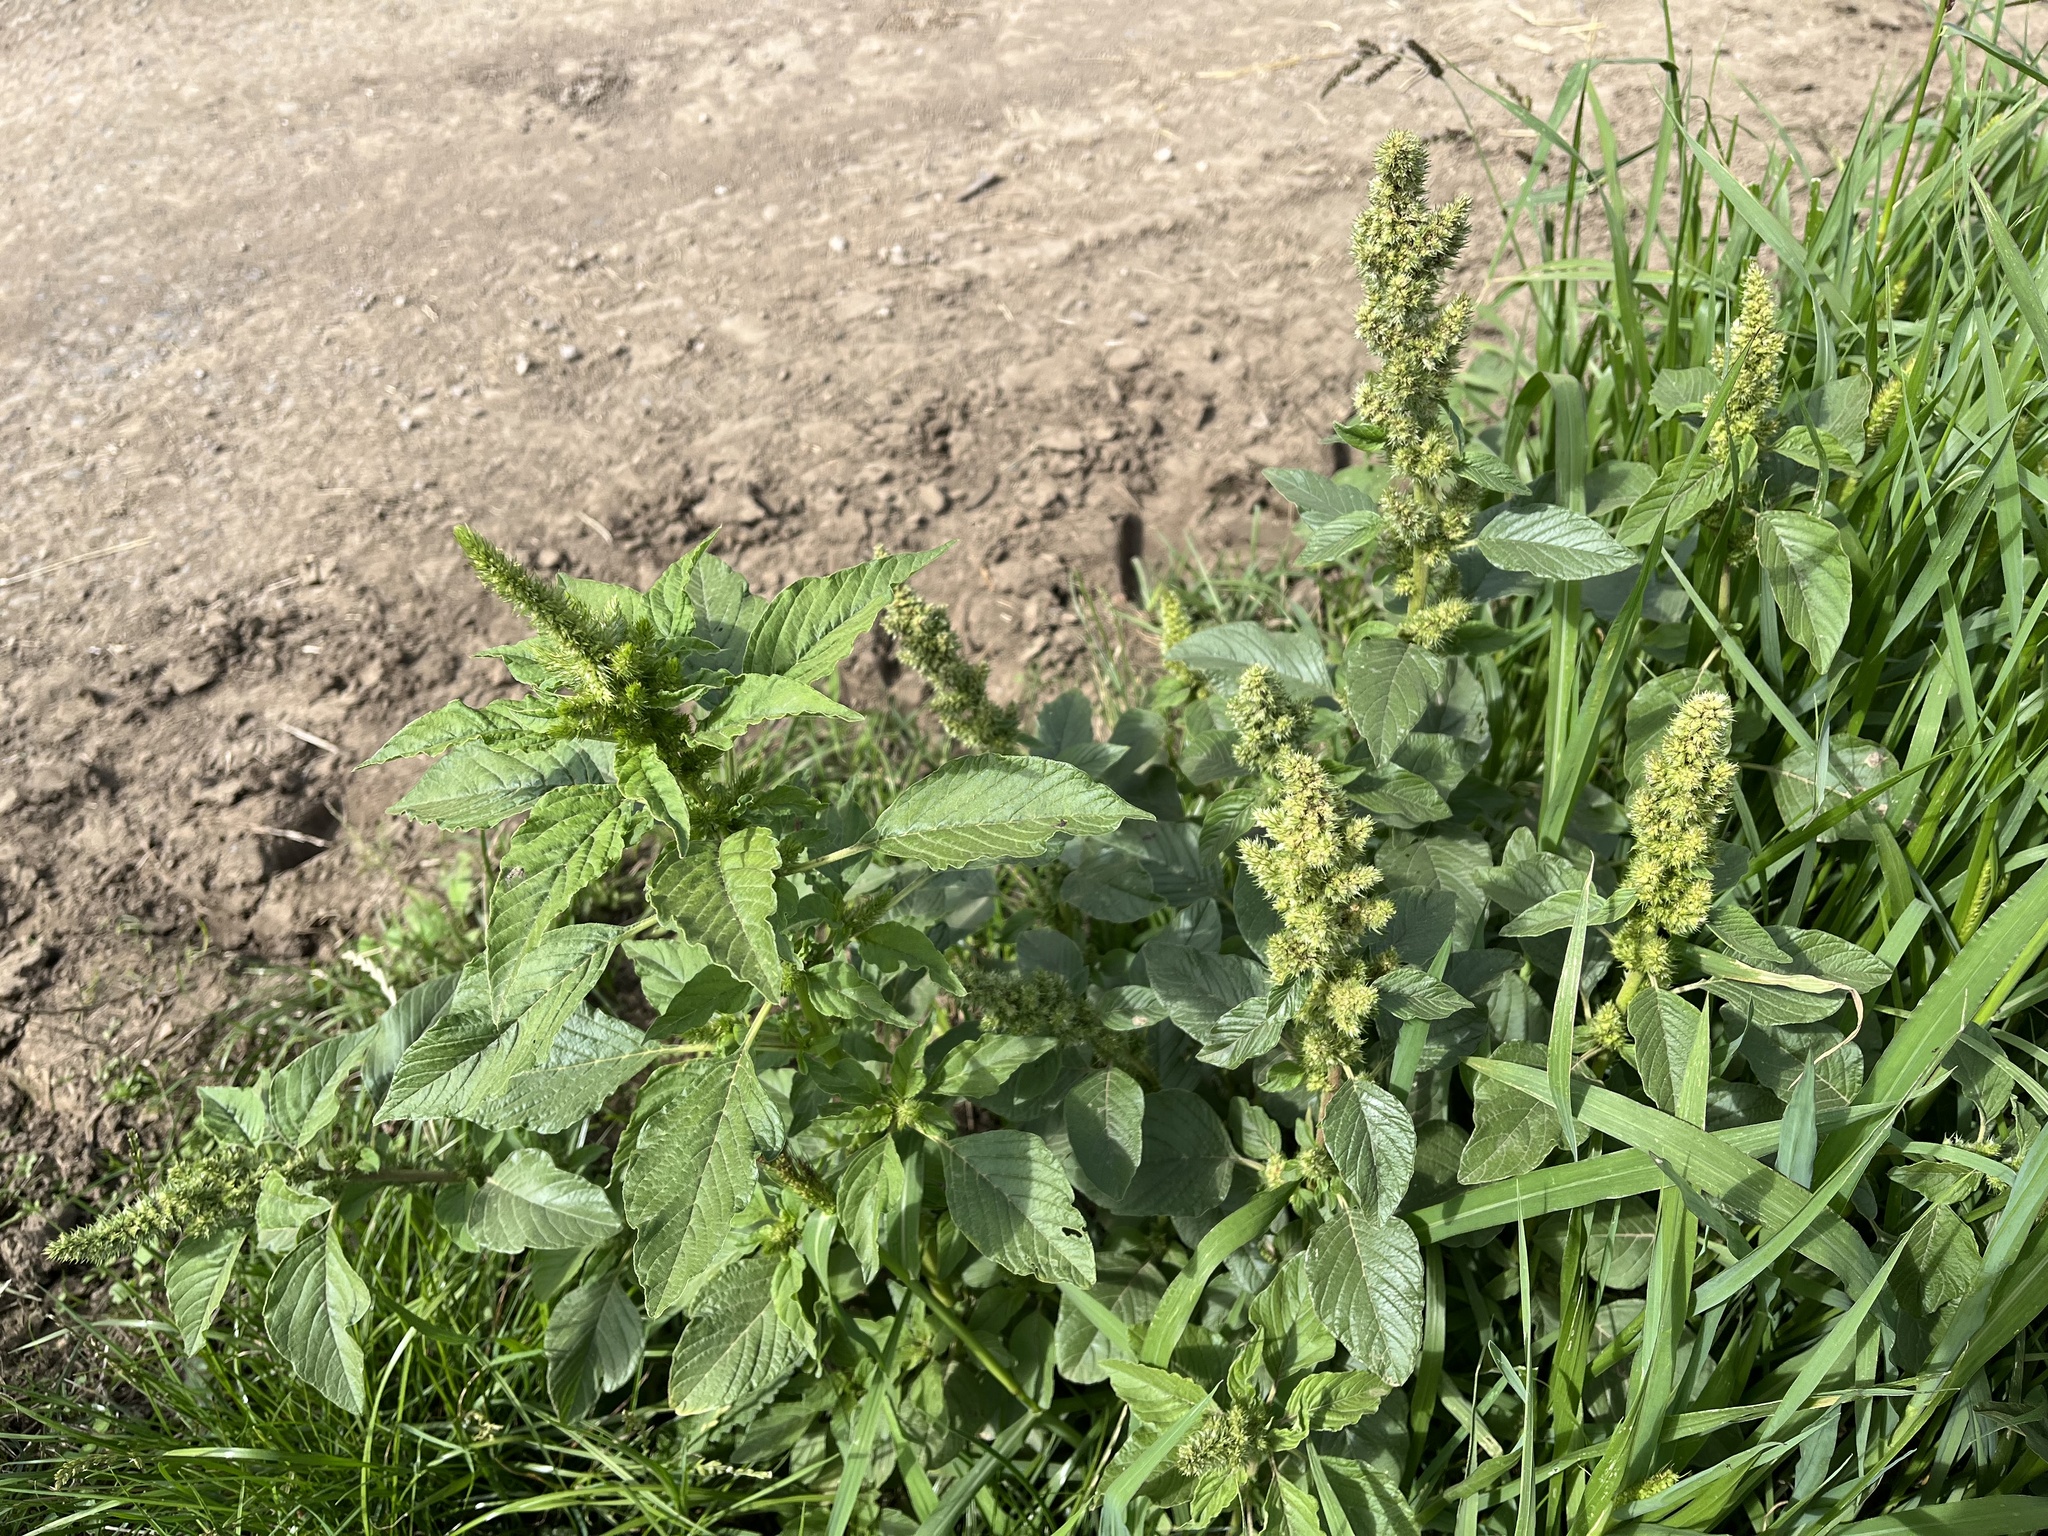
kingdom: Plantae
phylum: Tracheophyta
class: Magnoliopsida
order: Caryophyllales
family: Amaranthaceae
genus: Amaranthus
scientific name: Amaranthus retroflexus
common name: Redroot amaranth
